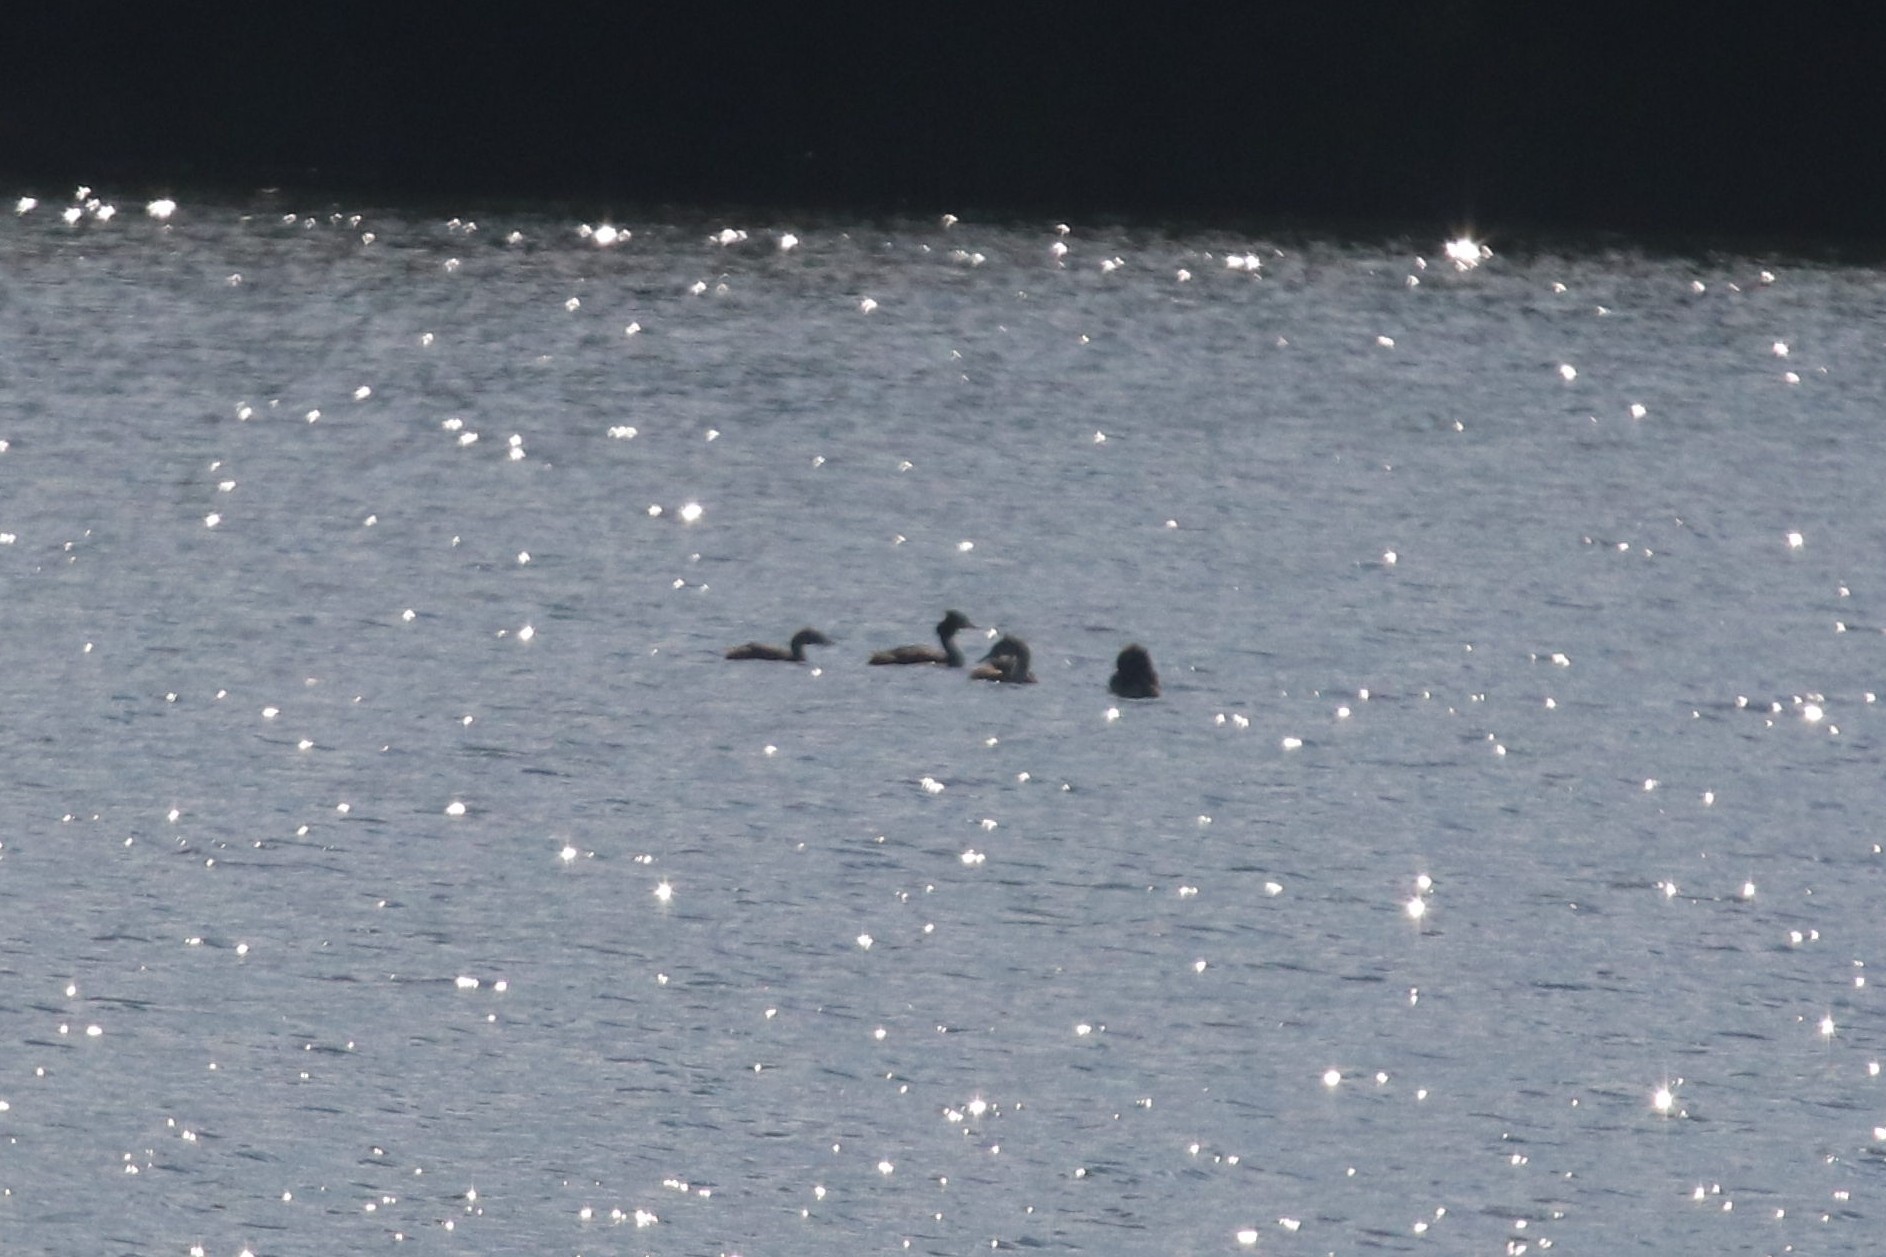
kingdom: Animalia
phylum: Chordata
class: Aves
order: Podicipediformes
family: Podicipedidae
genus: Podiceps
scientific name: Podiceps cristatus
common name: Great crested grebe
